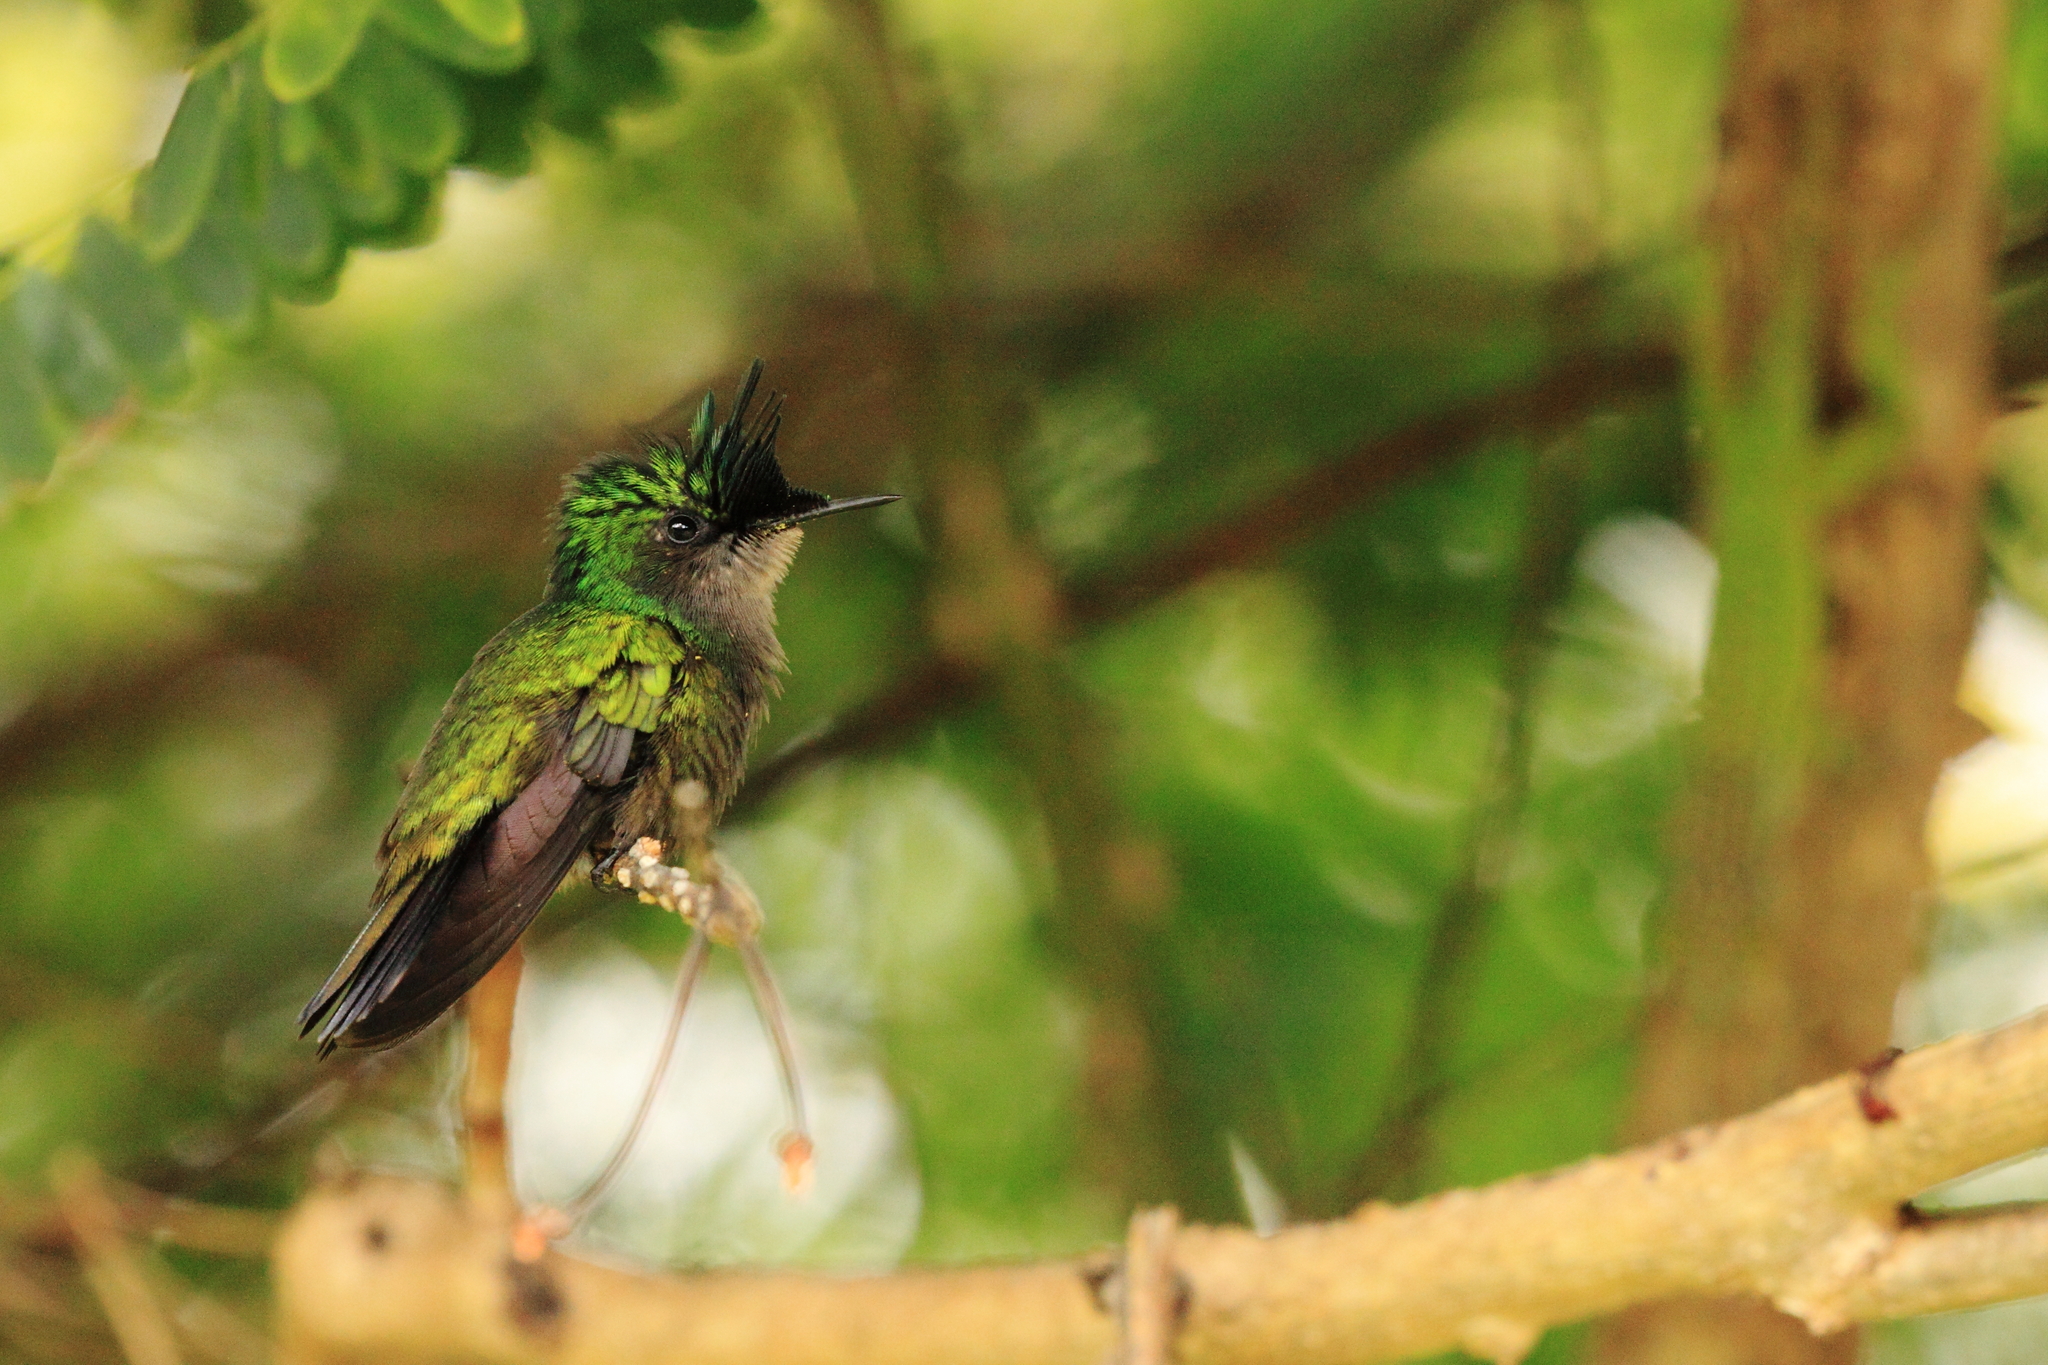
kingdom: Animalia
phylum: Chordata
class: Aves
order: Apodiformes
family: Trochilidae
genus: Orthorhyncus
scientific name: Orthorhyncus cristatus
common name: Antillean crested hummingbird
